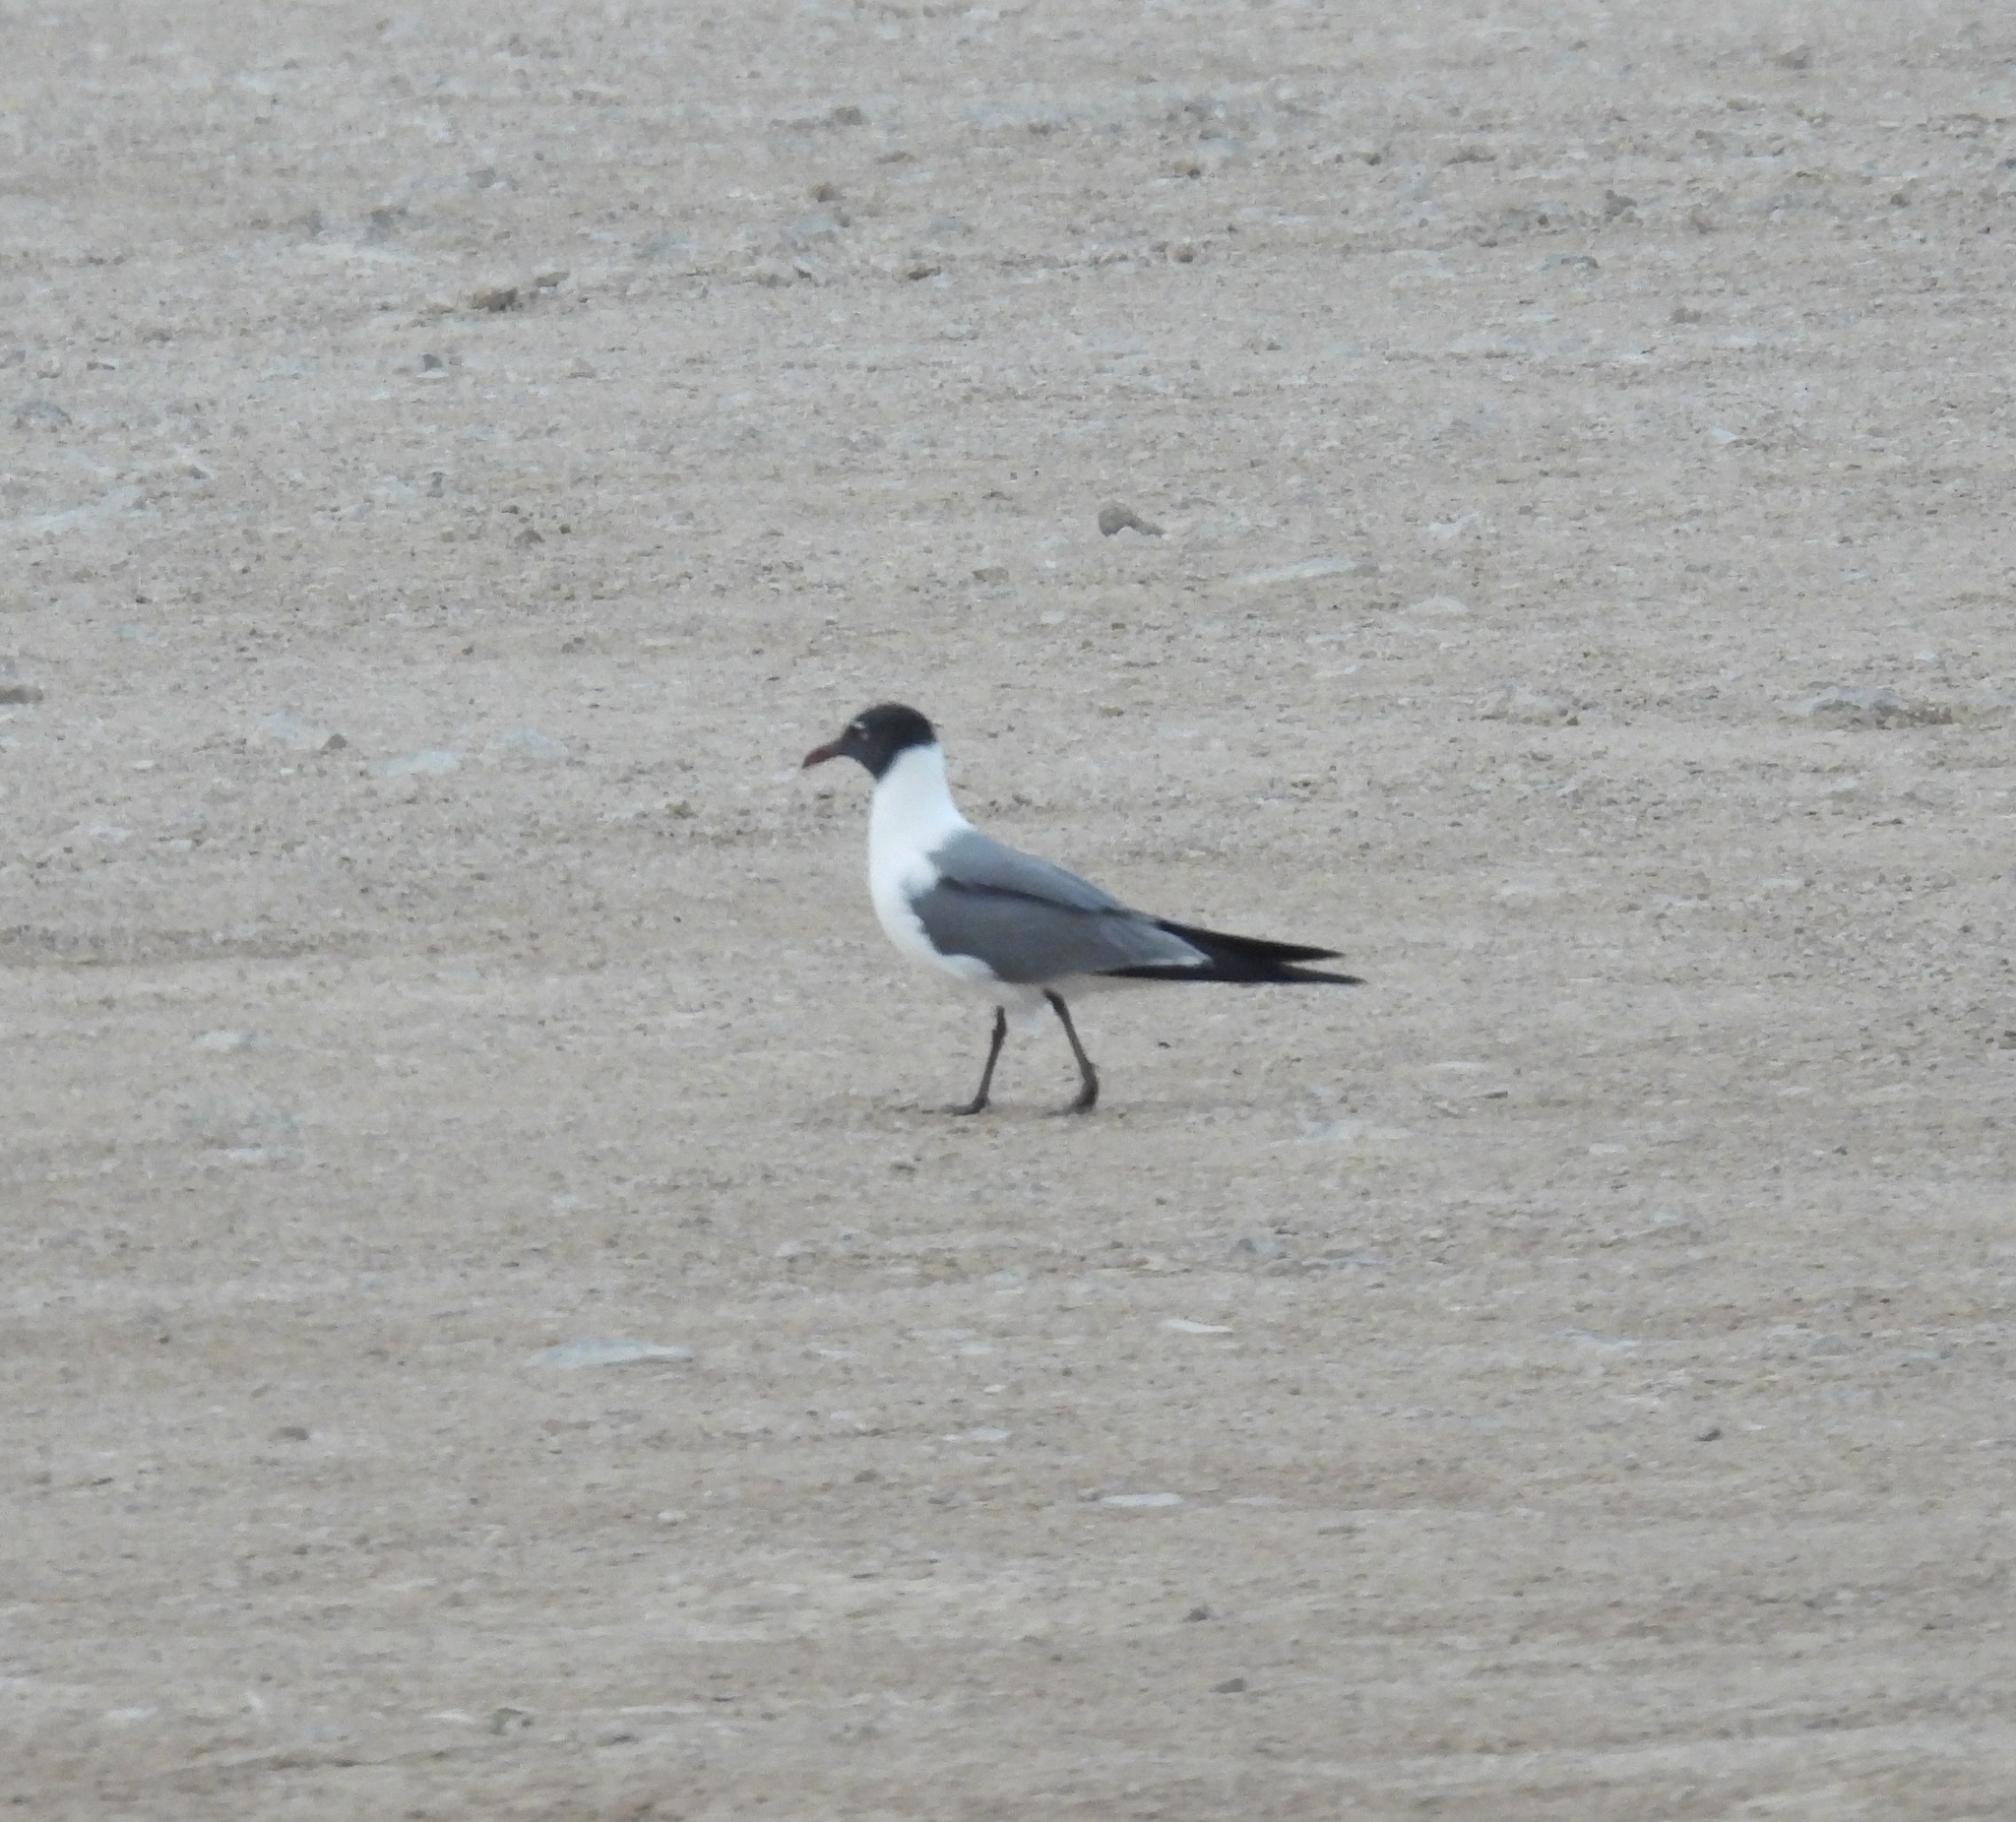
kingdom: Animalia
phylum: Chordata
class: Aves
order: Charadriiformes
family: Laridae
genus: Leucophaeus
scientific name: Leucophaeus atricilla
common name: Laughing gull
